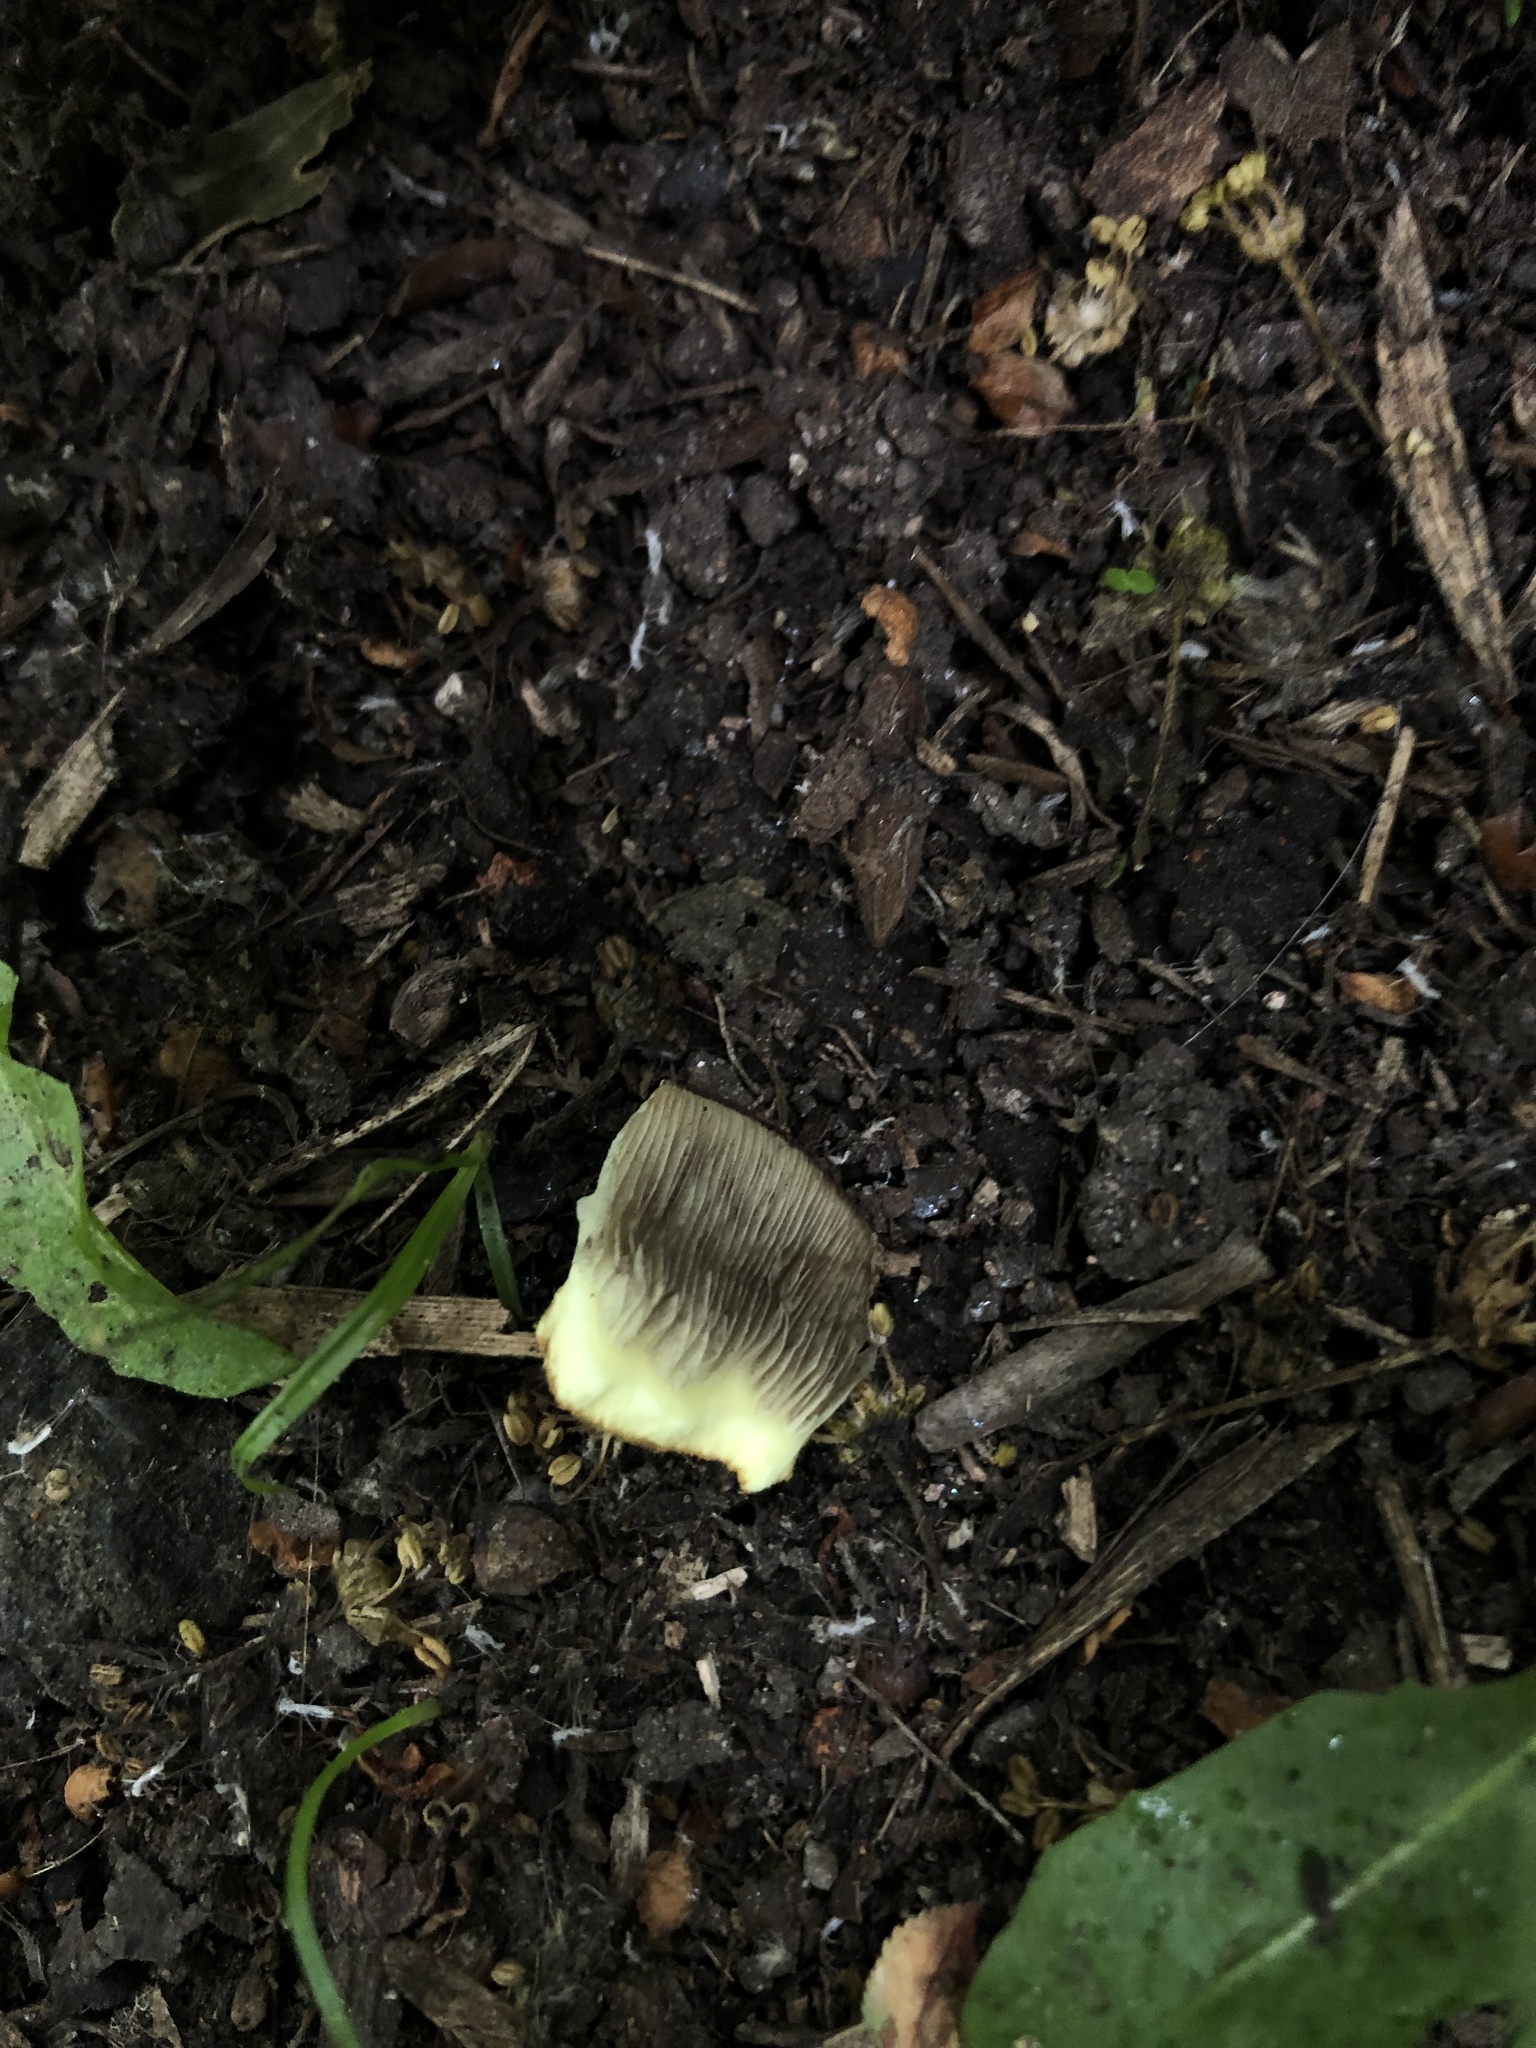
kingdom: Fungi
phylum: Basidiomycota
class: Agaricomycetes
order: Agaricales
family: Strophariaceae
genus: Hypholoma
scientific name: Hypholoma fasciculare
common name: Sulphur tuft
